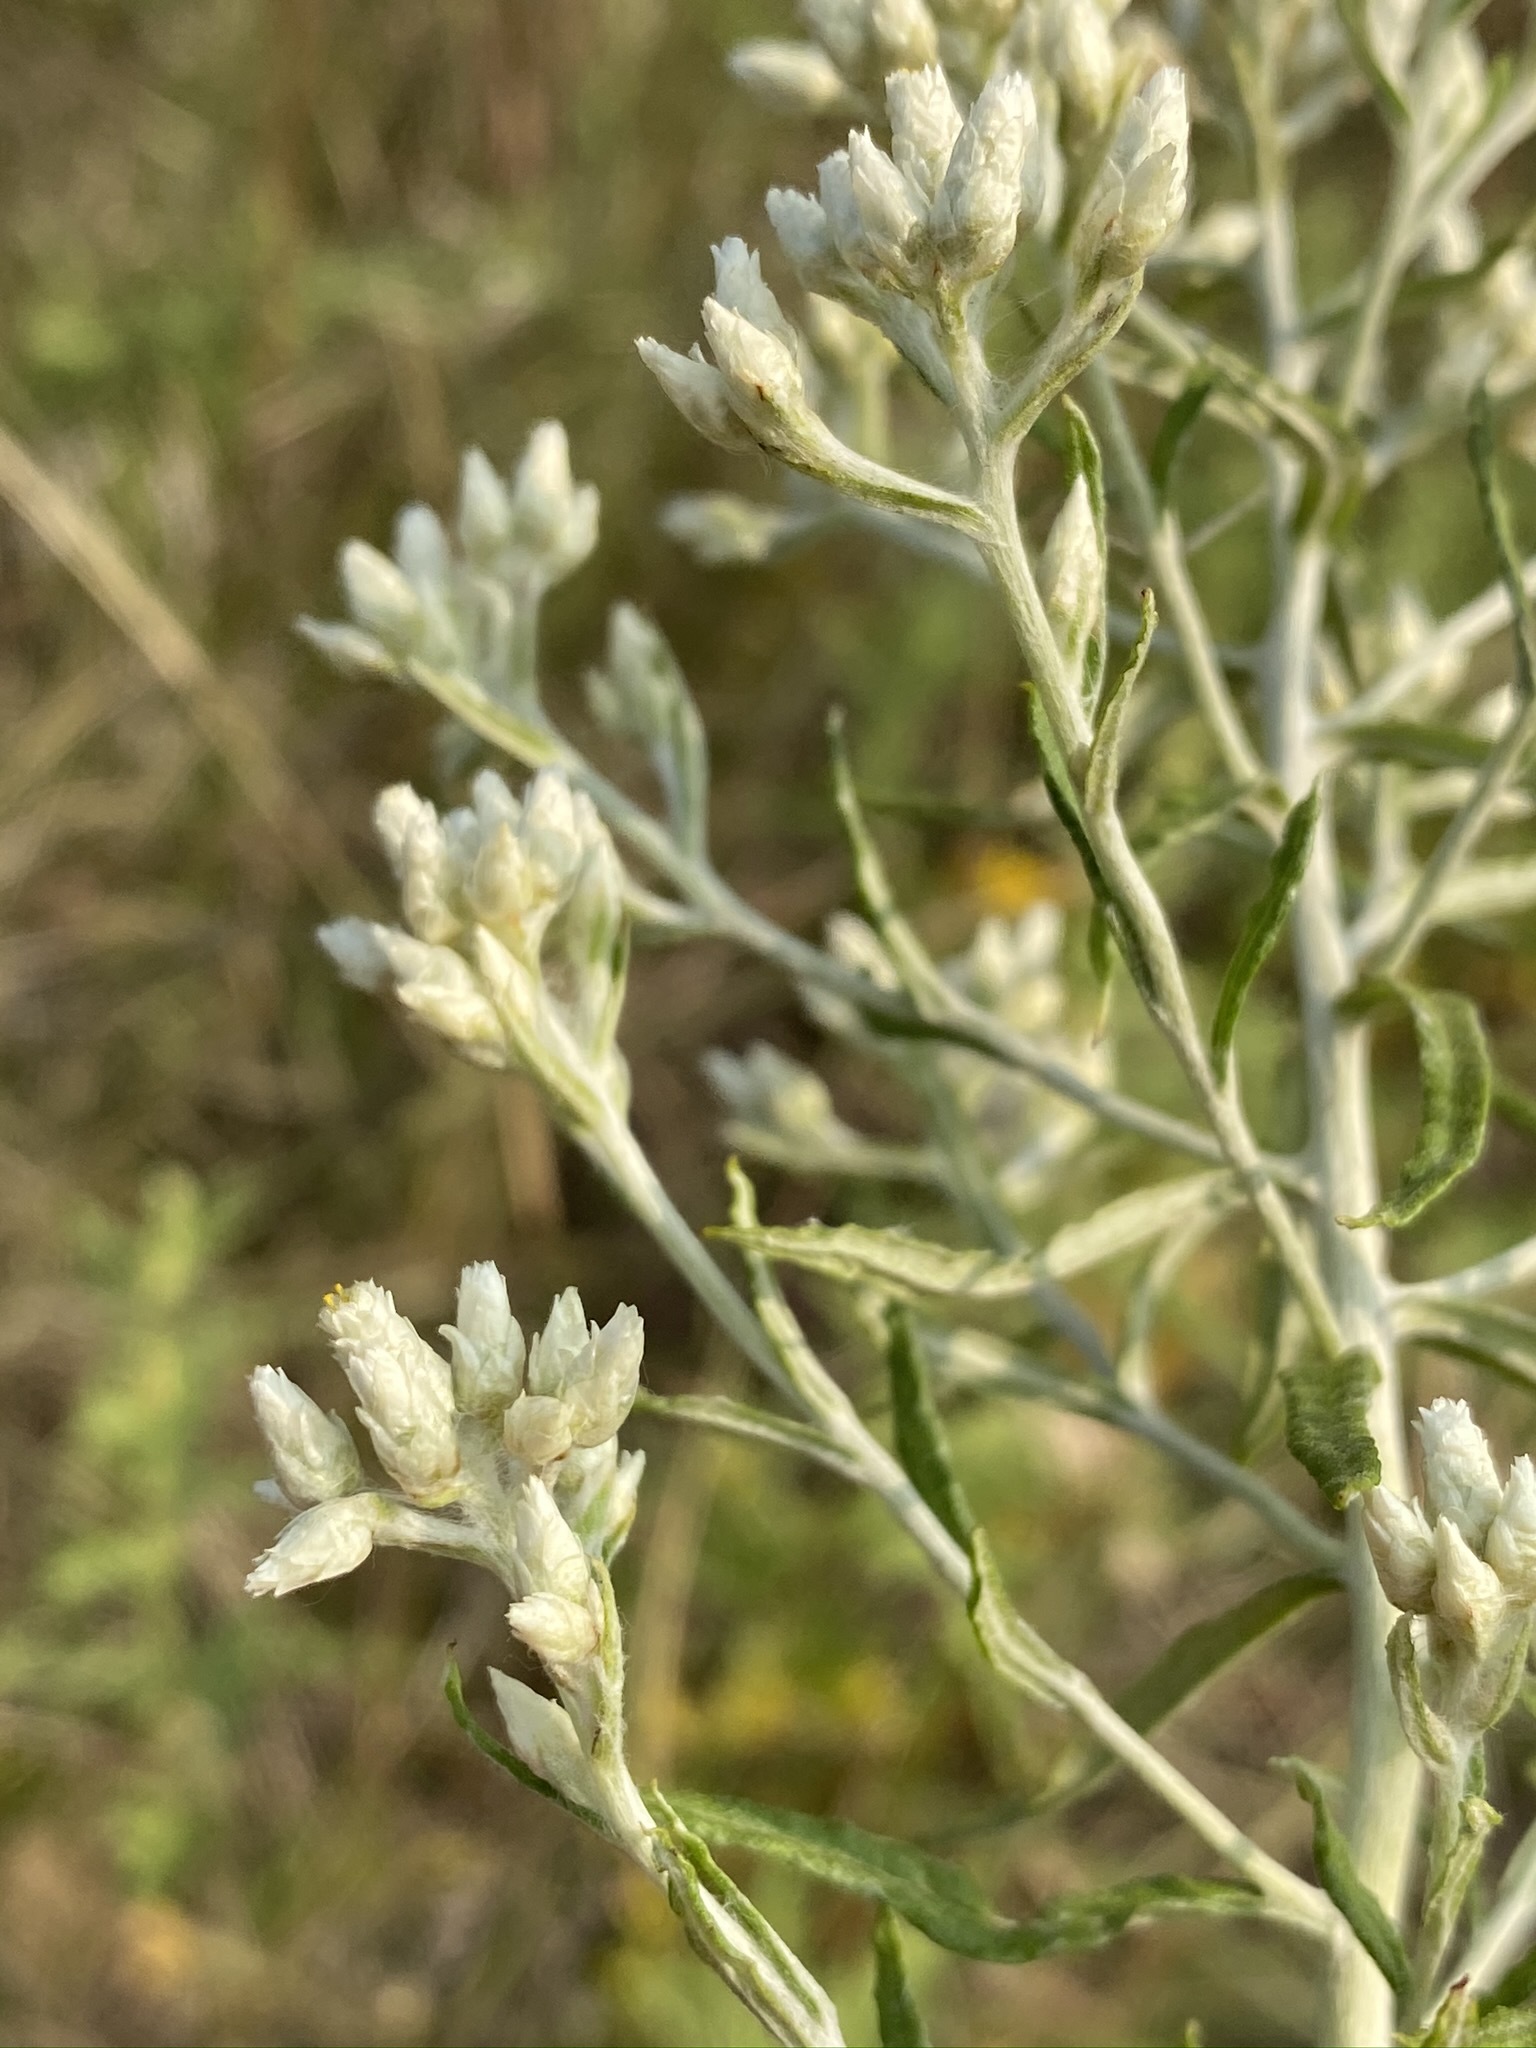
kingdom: Plantae
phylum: Tracheophyta
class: Magnoliopsida
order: Asterales
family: Asteraceae
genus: Pseudognaphalium
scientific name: Pseudognaphalium obtusifolium
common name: Eastern rabbit-tobacco
